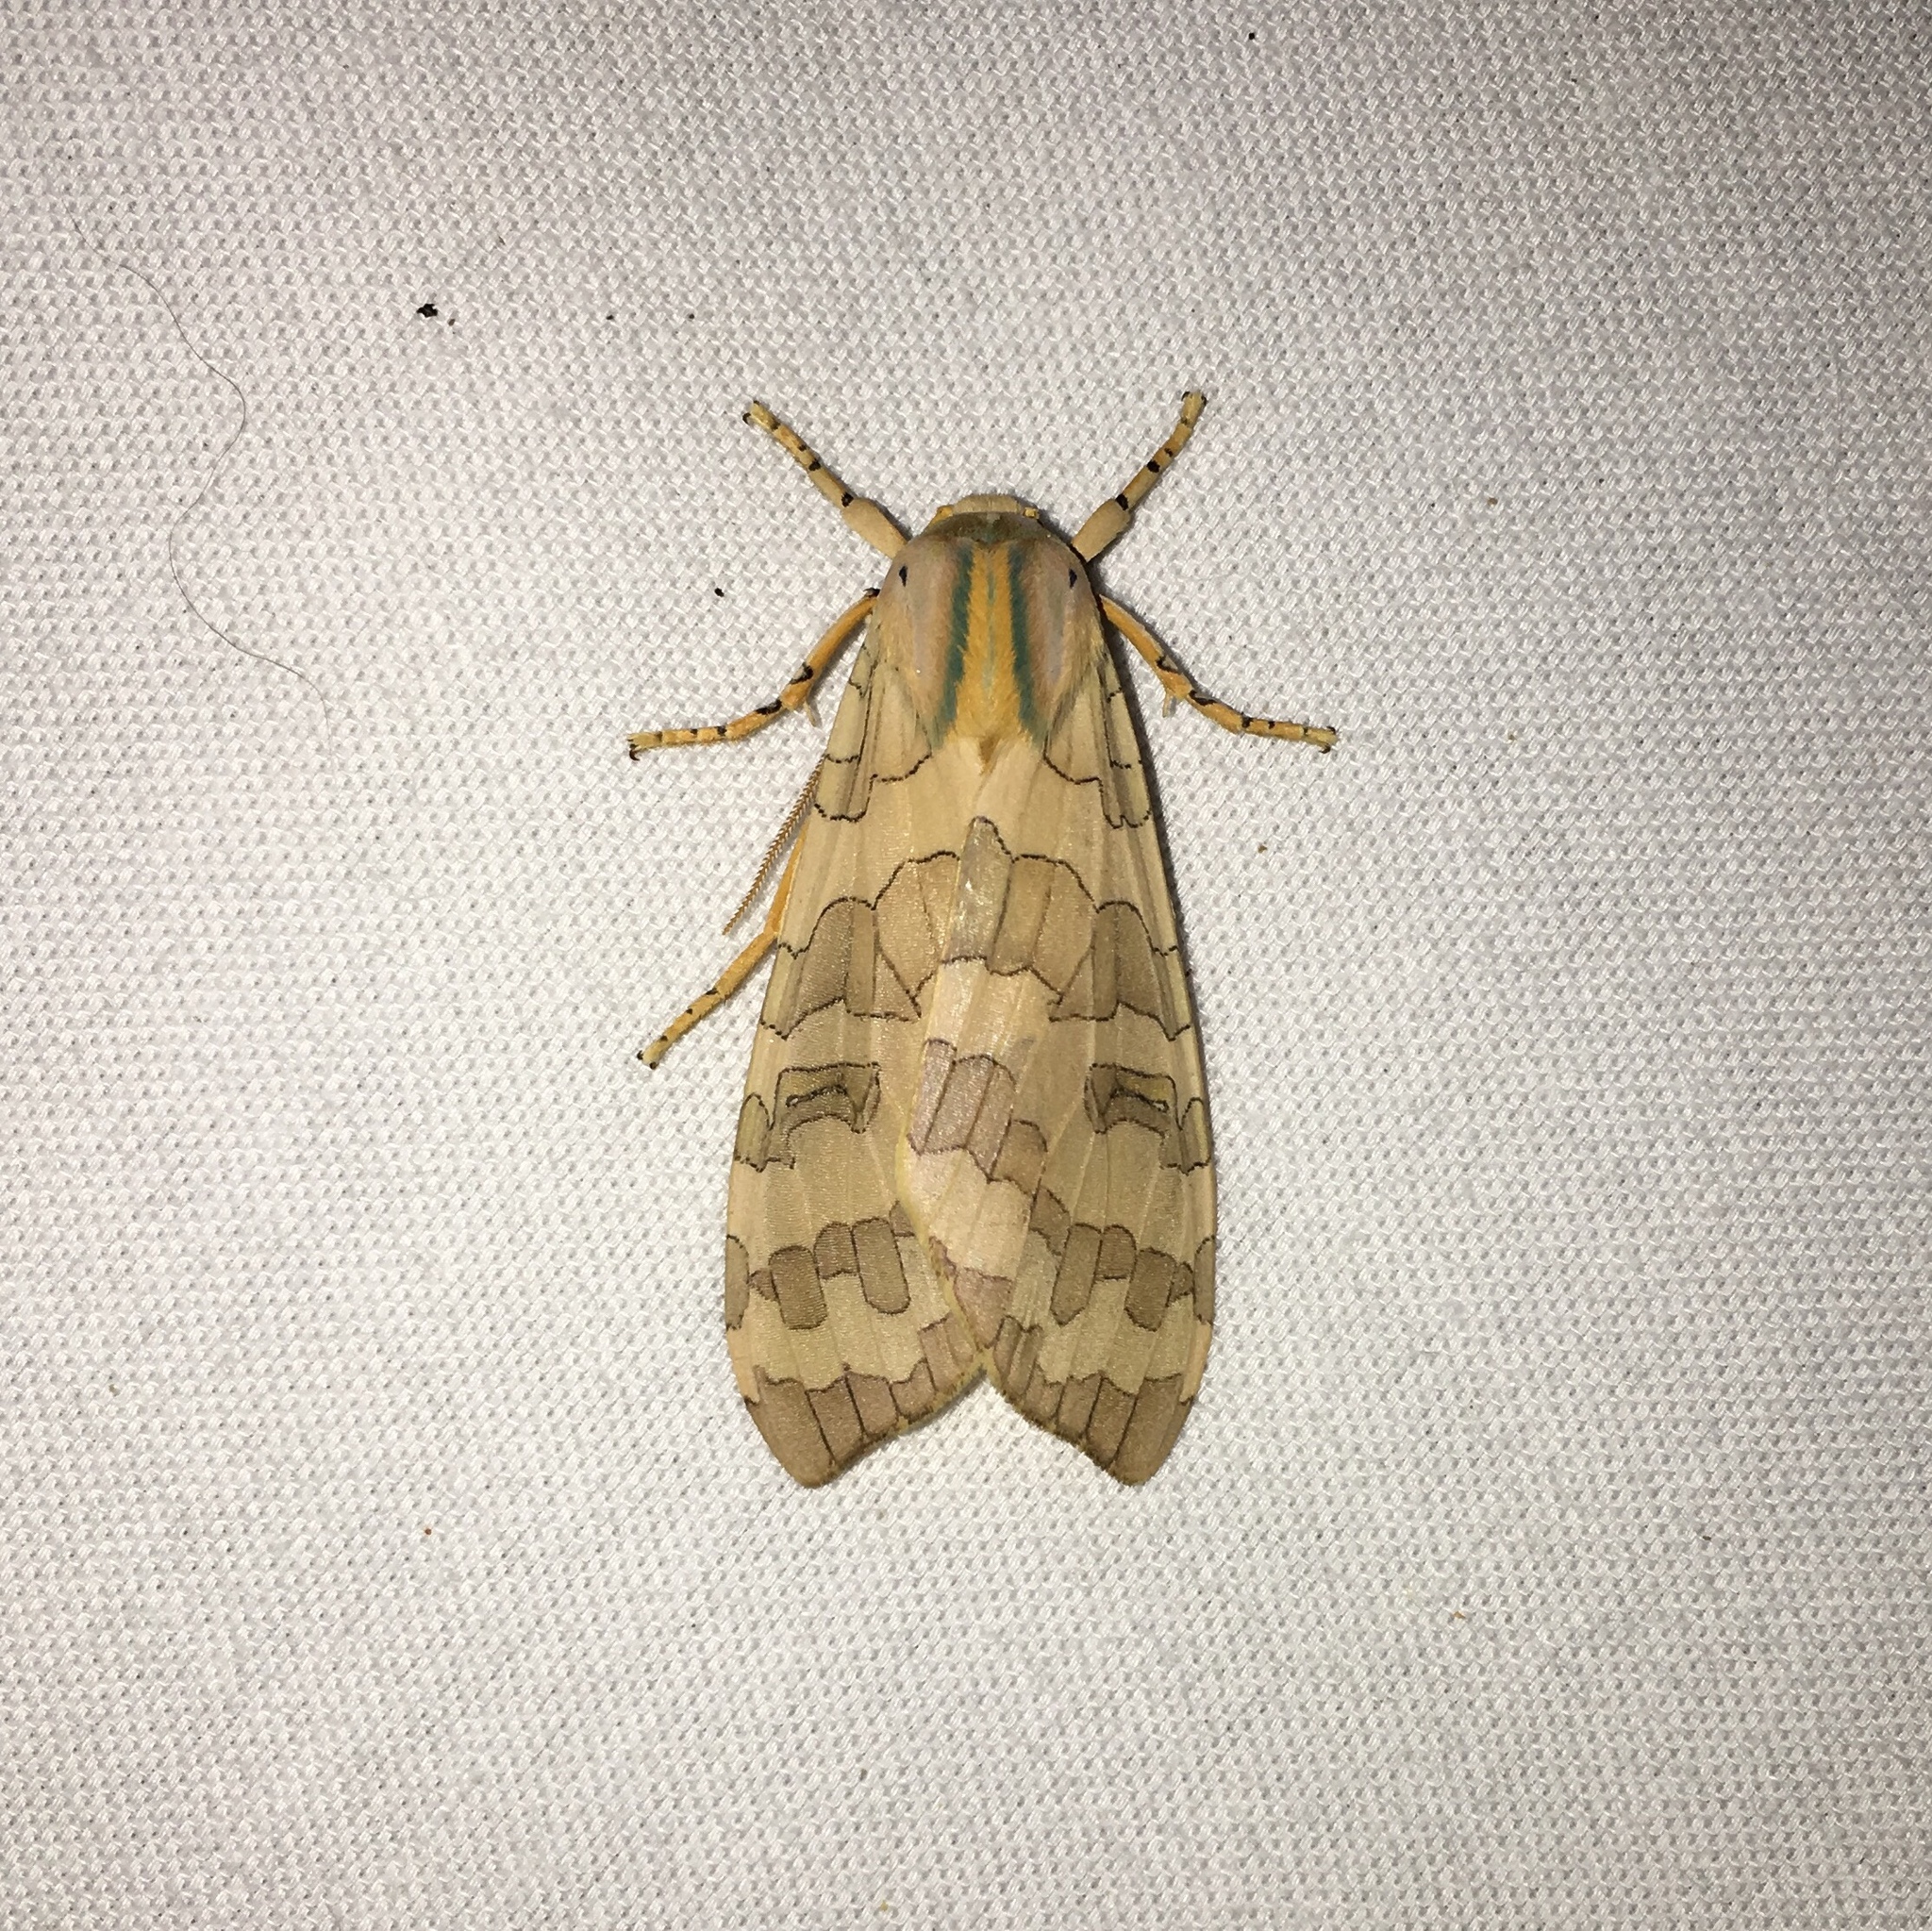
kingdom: Animalia
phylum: Arthropoda
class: Insecta
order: Lepidoptera
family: Erebidae
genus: Halysidota
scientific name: Halysidota
